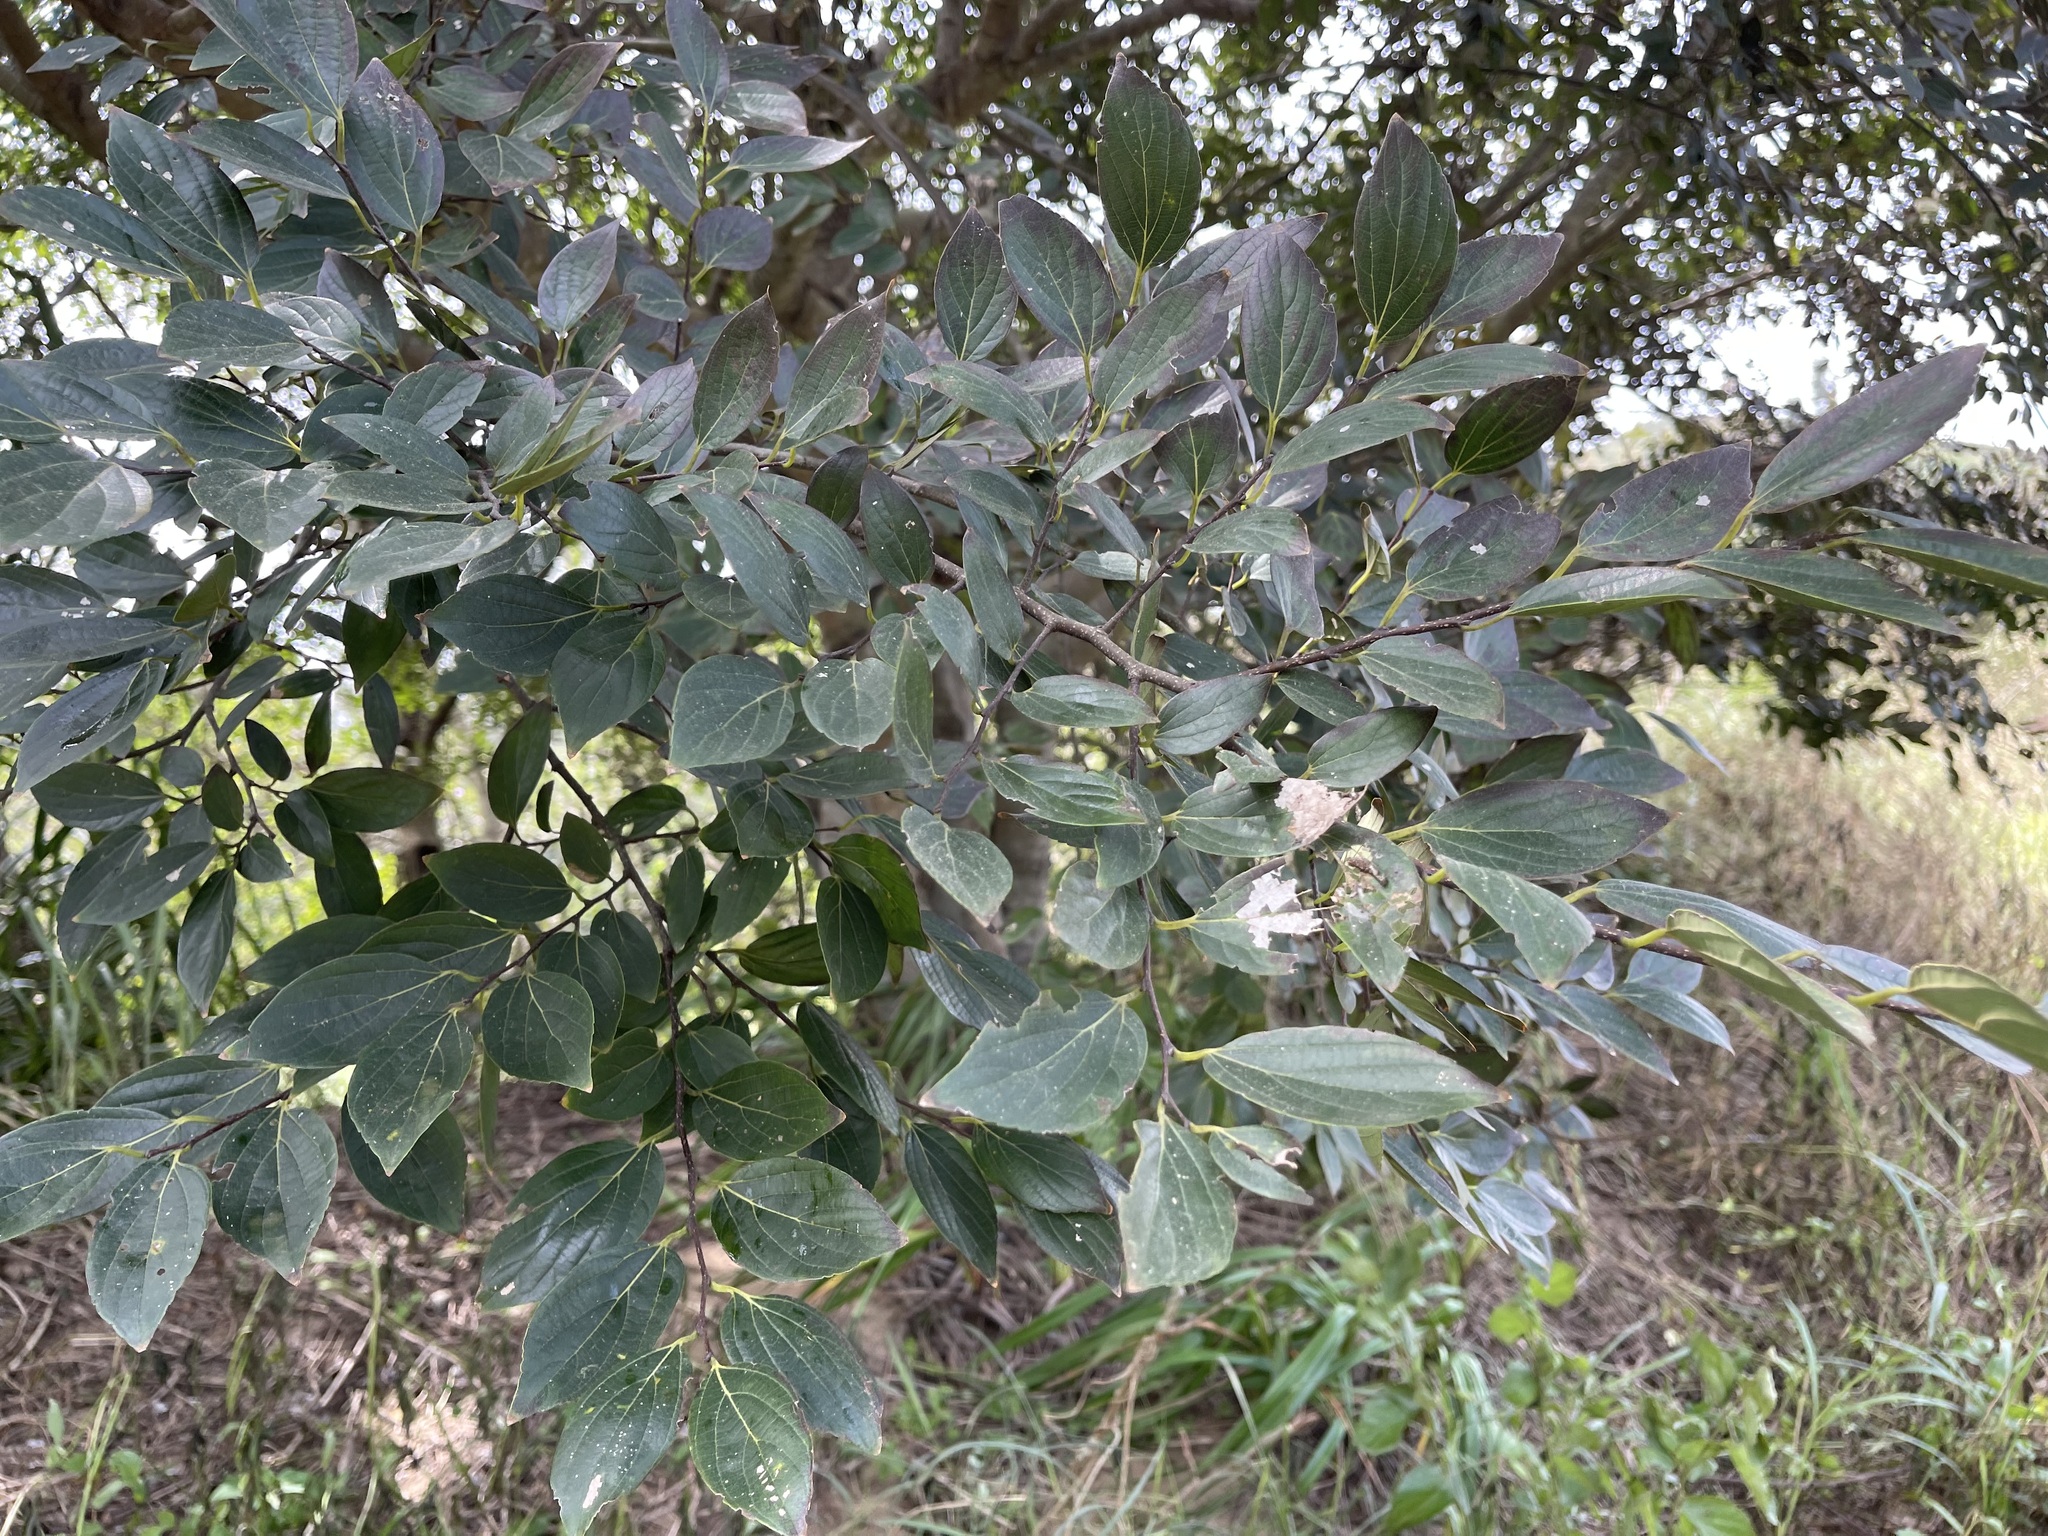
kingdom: Plantae
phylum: Tracheophyta
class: Magnoliopsida
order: Rosales
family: Cannabaceae
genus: Celtis
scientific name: Celtis sinensis
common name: Chinese hackberry
